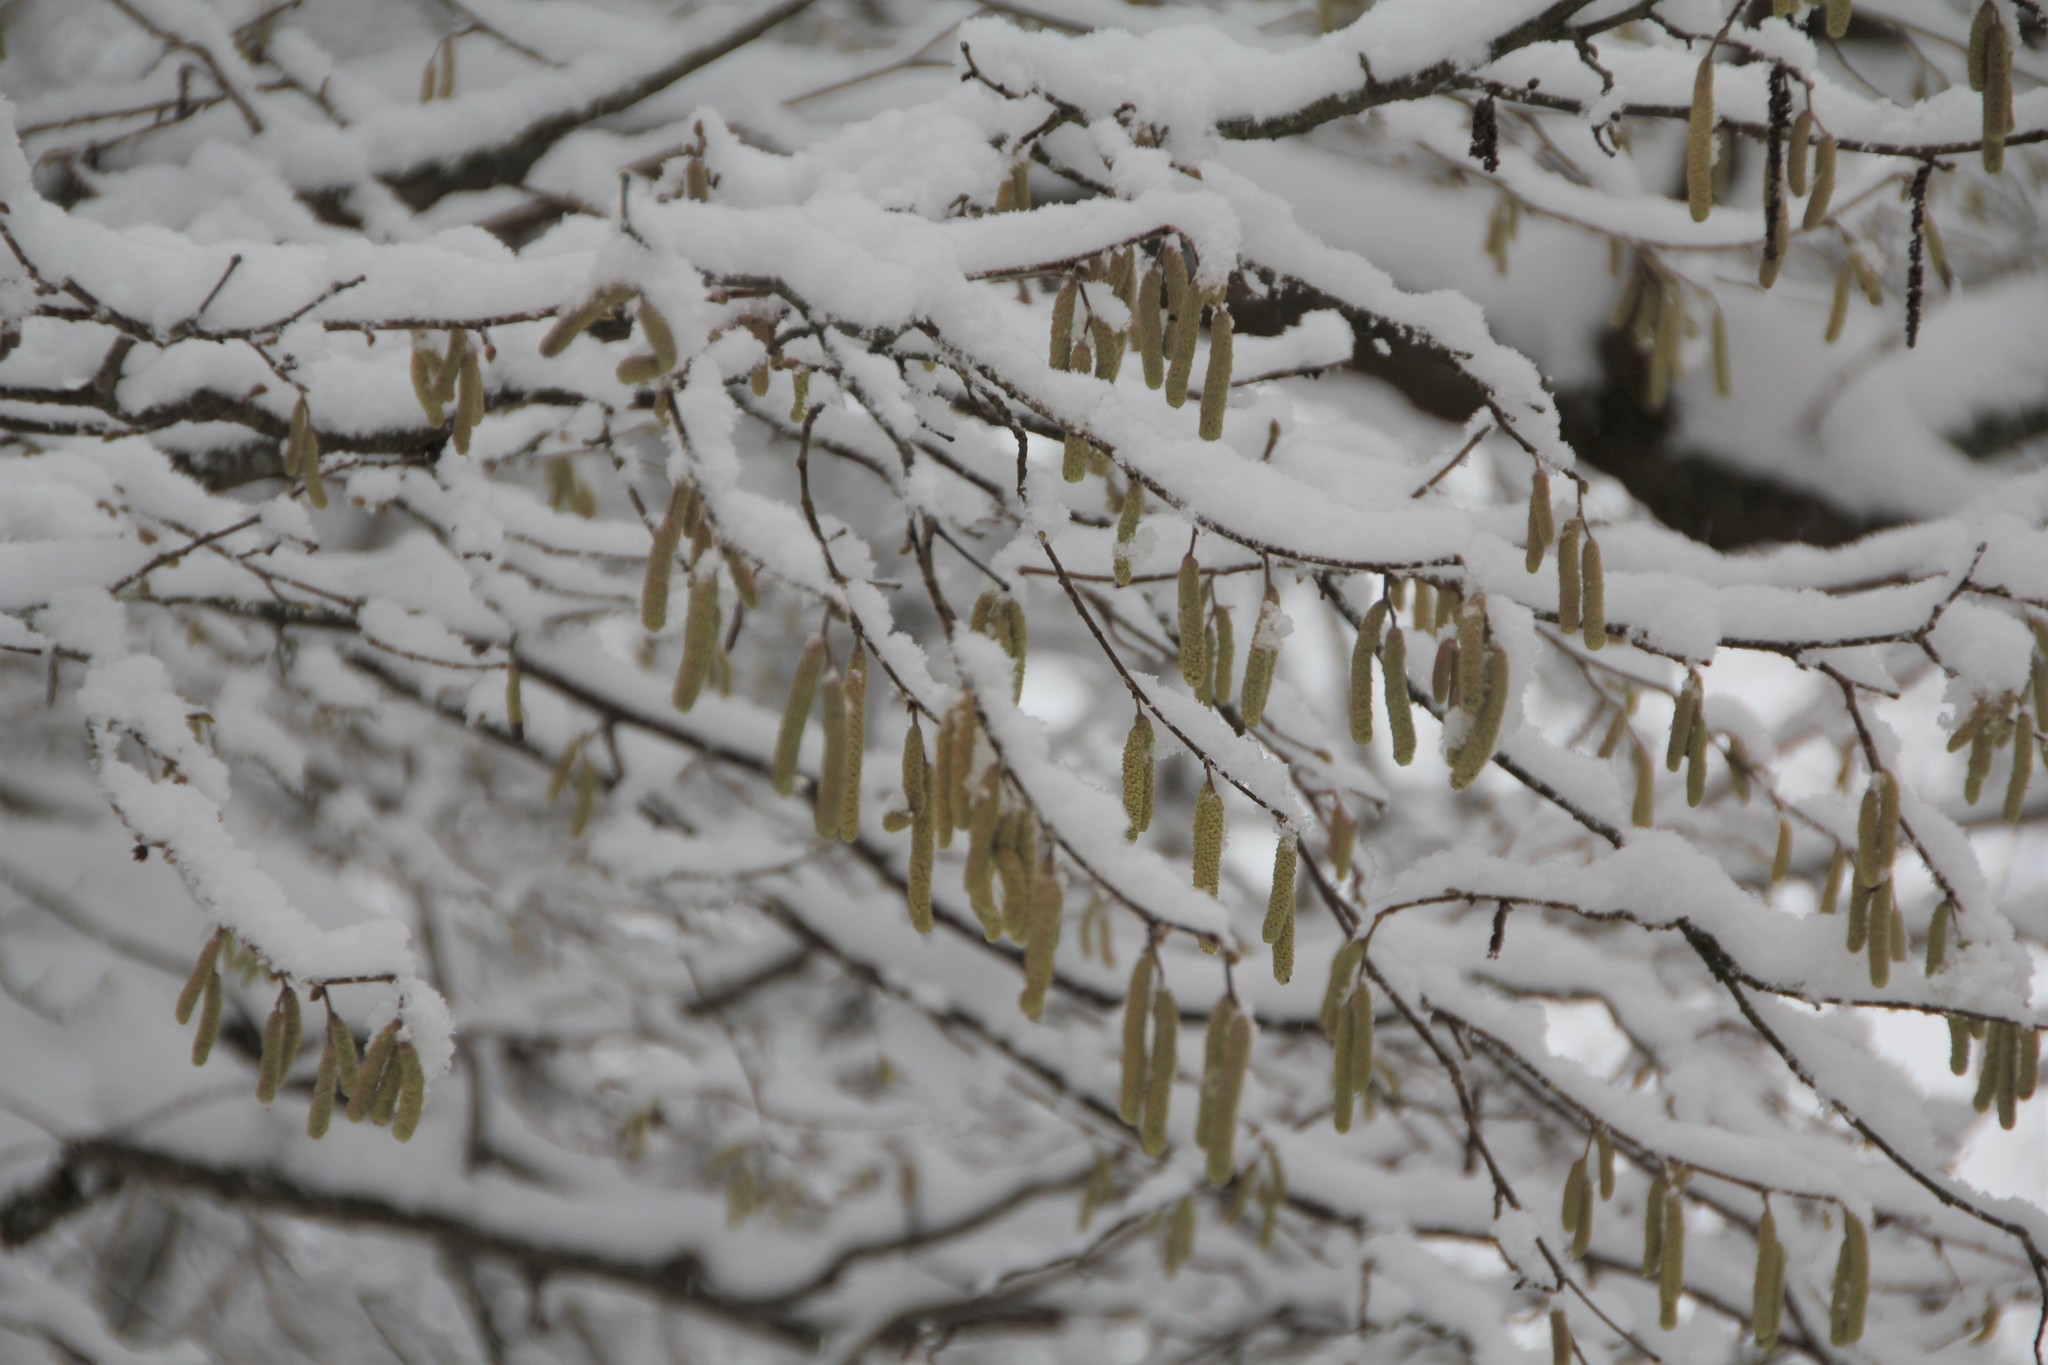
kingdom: Plantae
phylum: Tracheophyta
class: Magnoliopsida
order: Fagales
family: Betulaceae
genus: Corylus
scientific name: Corylus avellana
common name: European hazel
